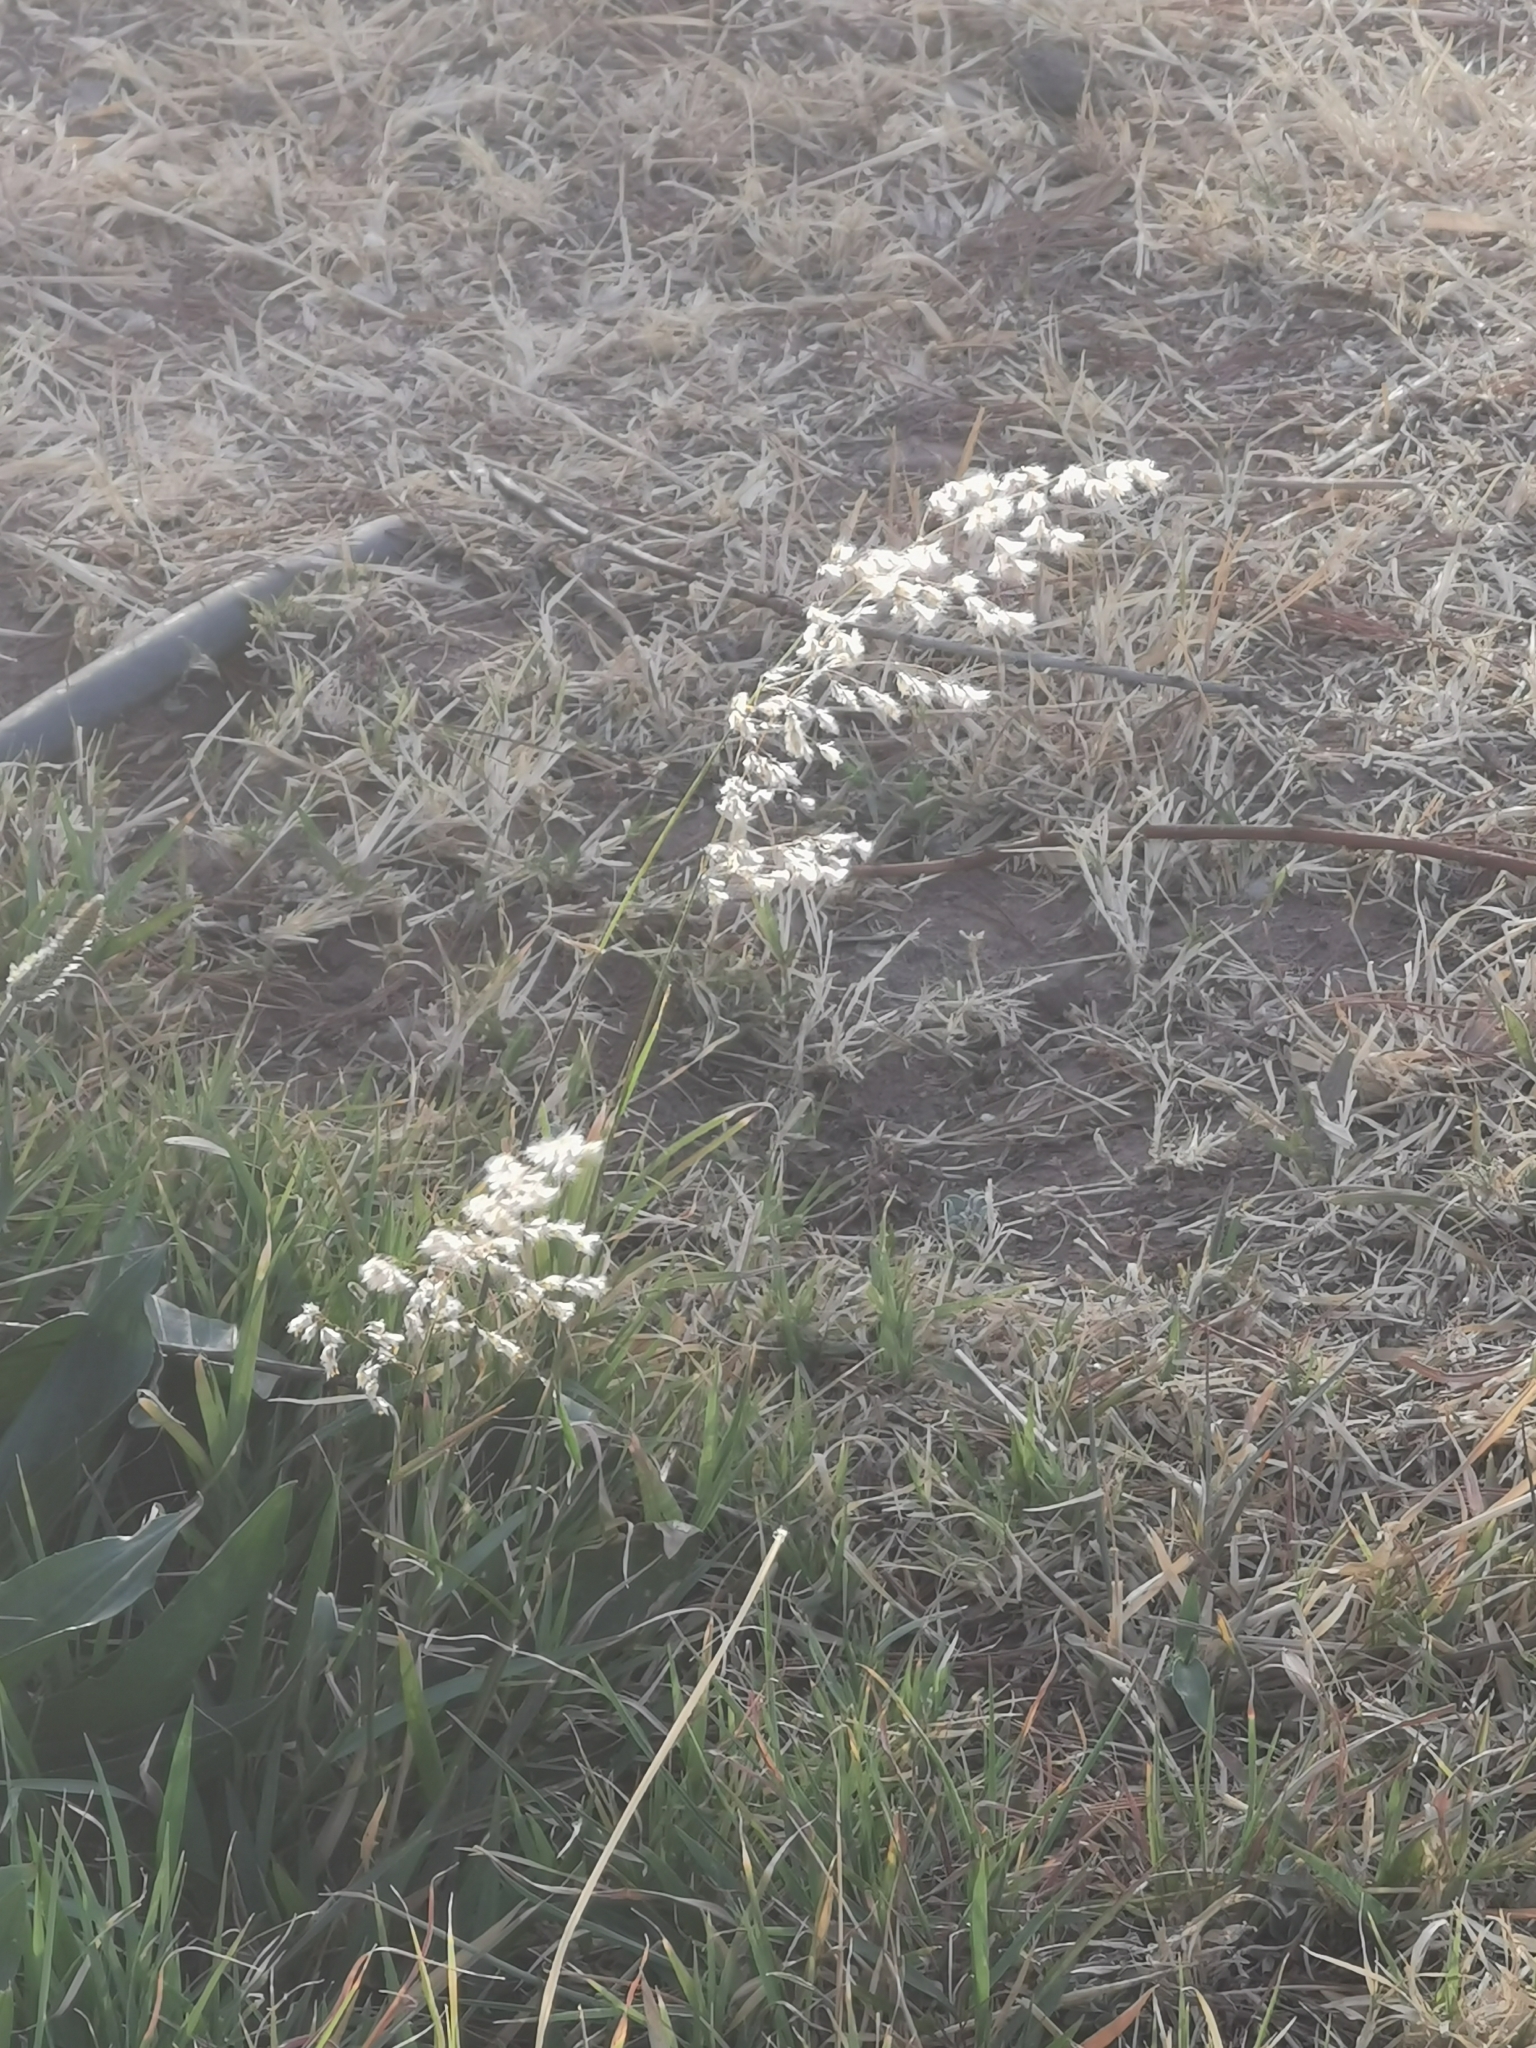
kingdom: Plantae
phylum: Tracheophyta
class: Liliopsida
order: Poales
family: Poaceae
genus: Melinis
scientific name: Melinis repens
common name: Rose natal grass
